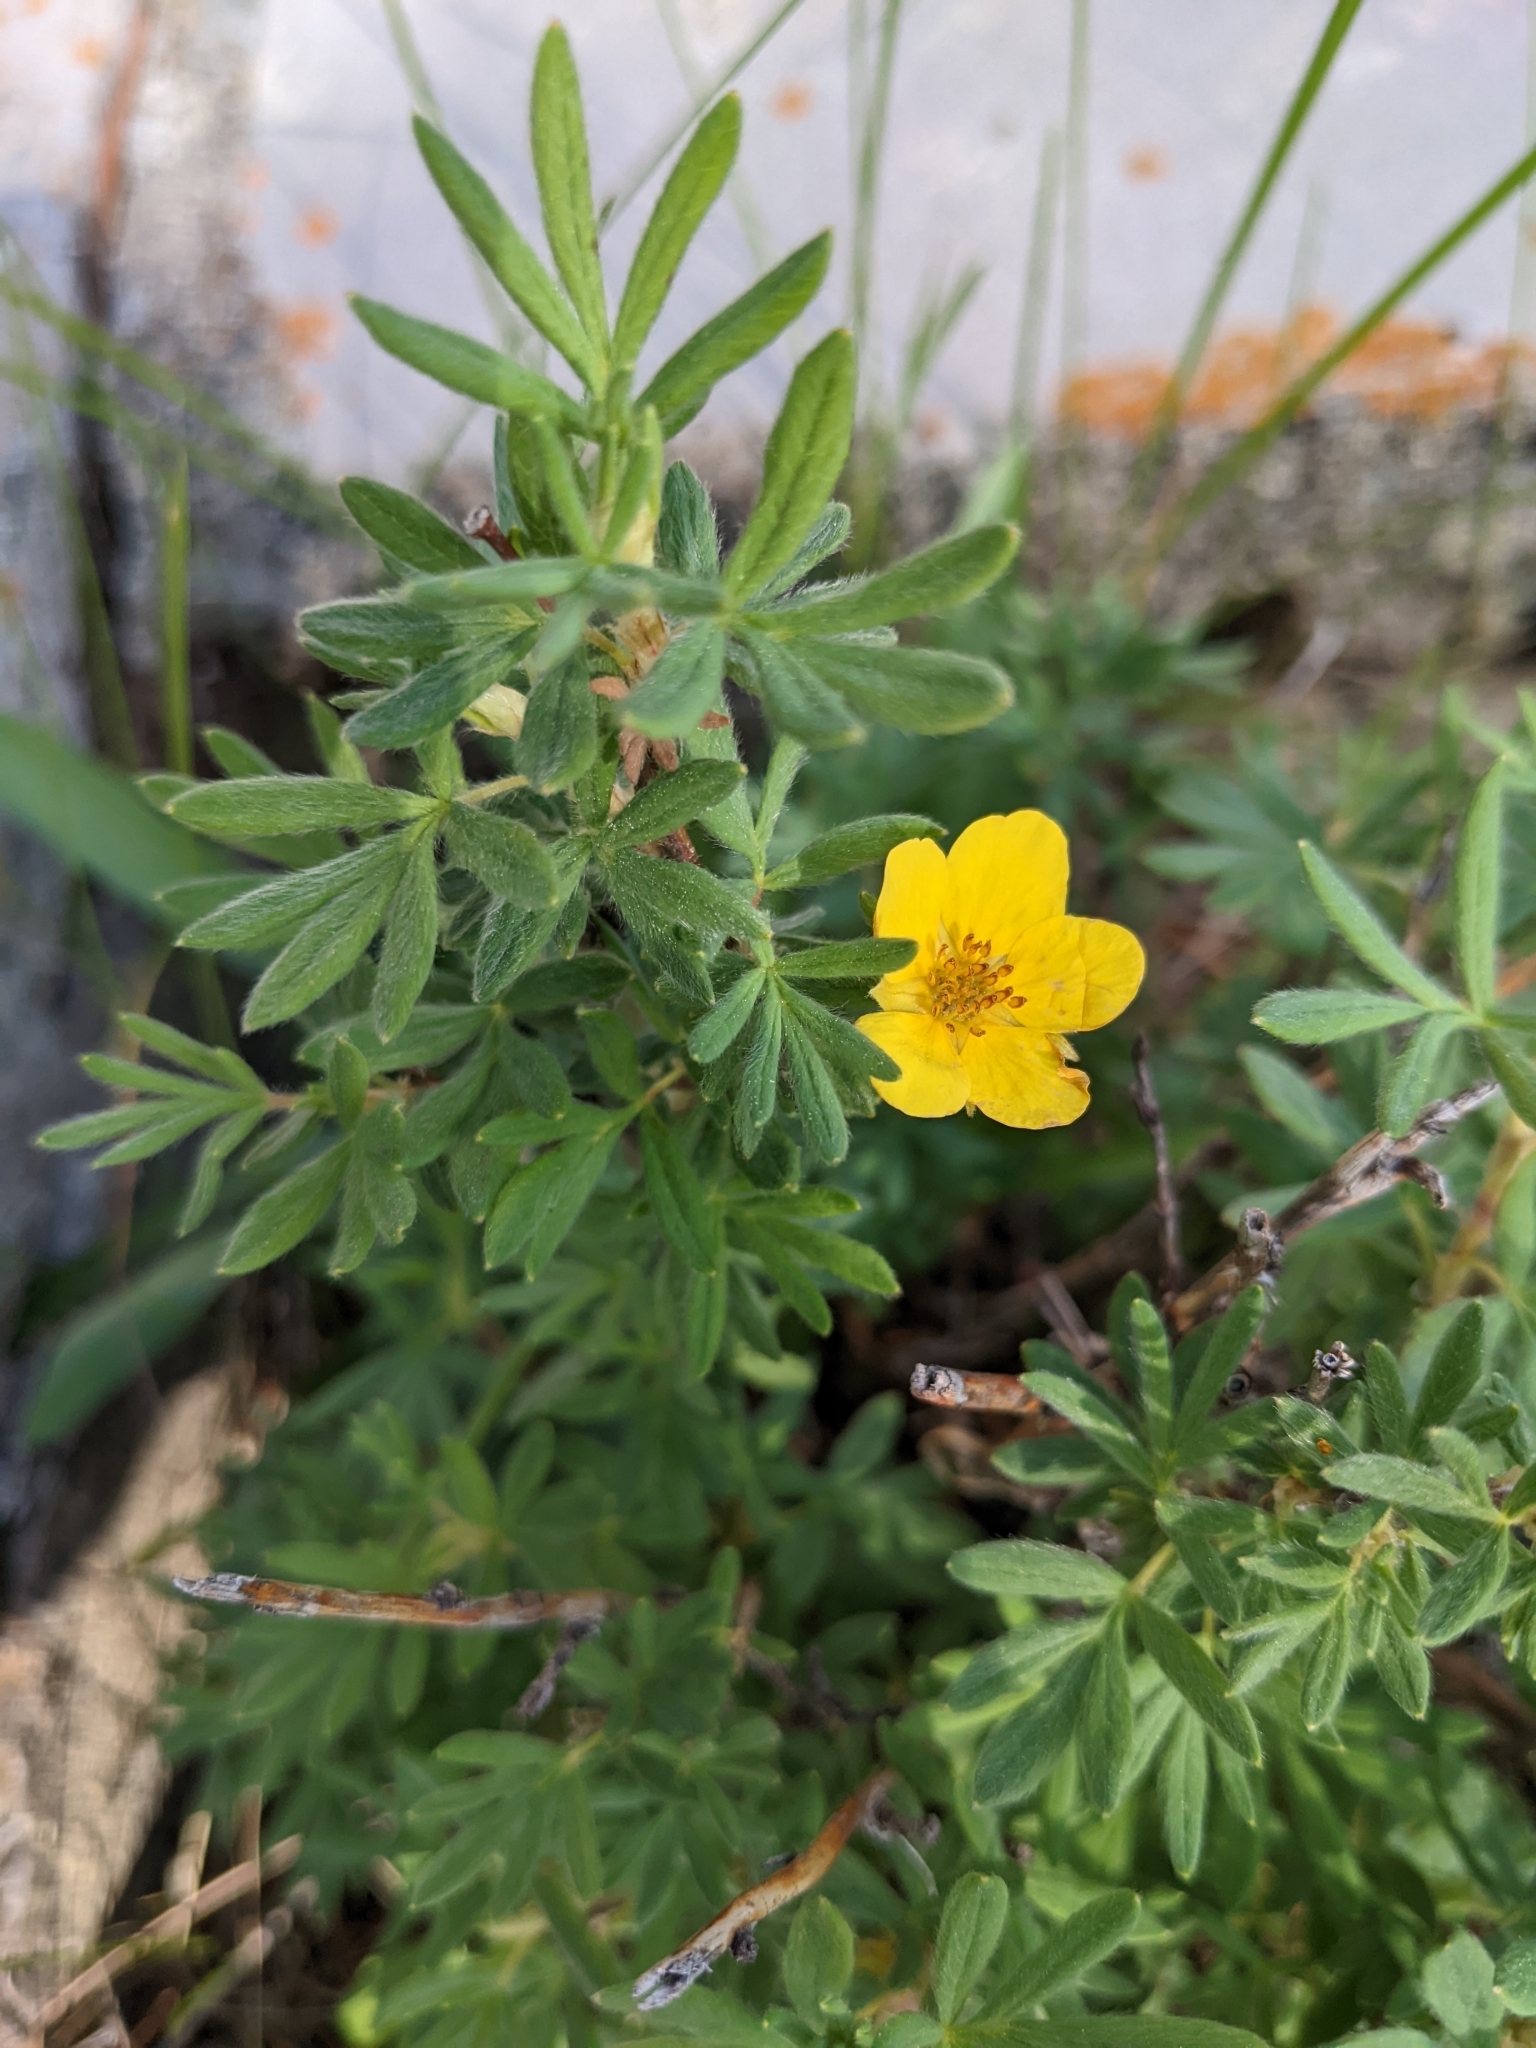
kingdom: Plantae
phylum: Tracheophyta
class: Magnoliopsida
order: Rosales
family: Rosaceae
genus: Dasiphora
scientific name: Dasiphora fruticosa
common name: Shrubby cinquefoil
